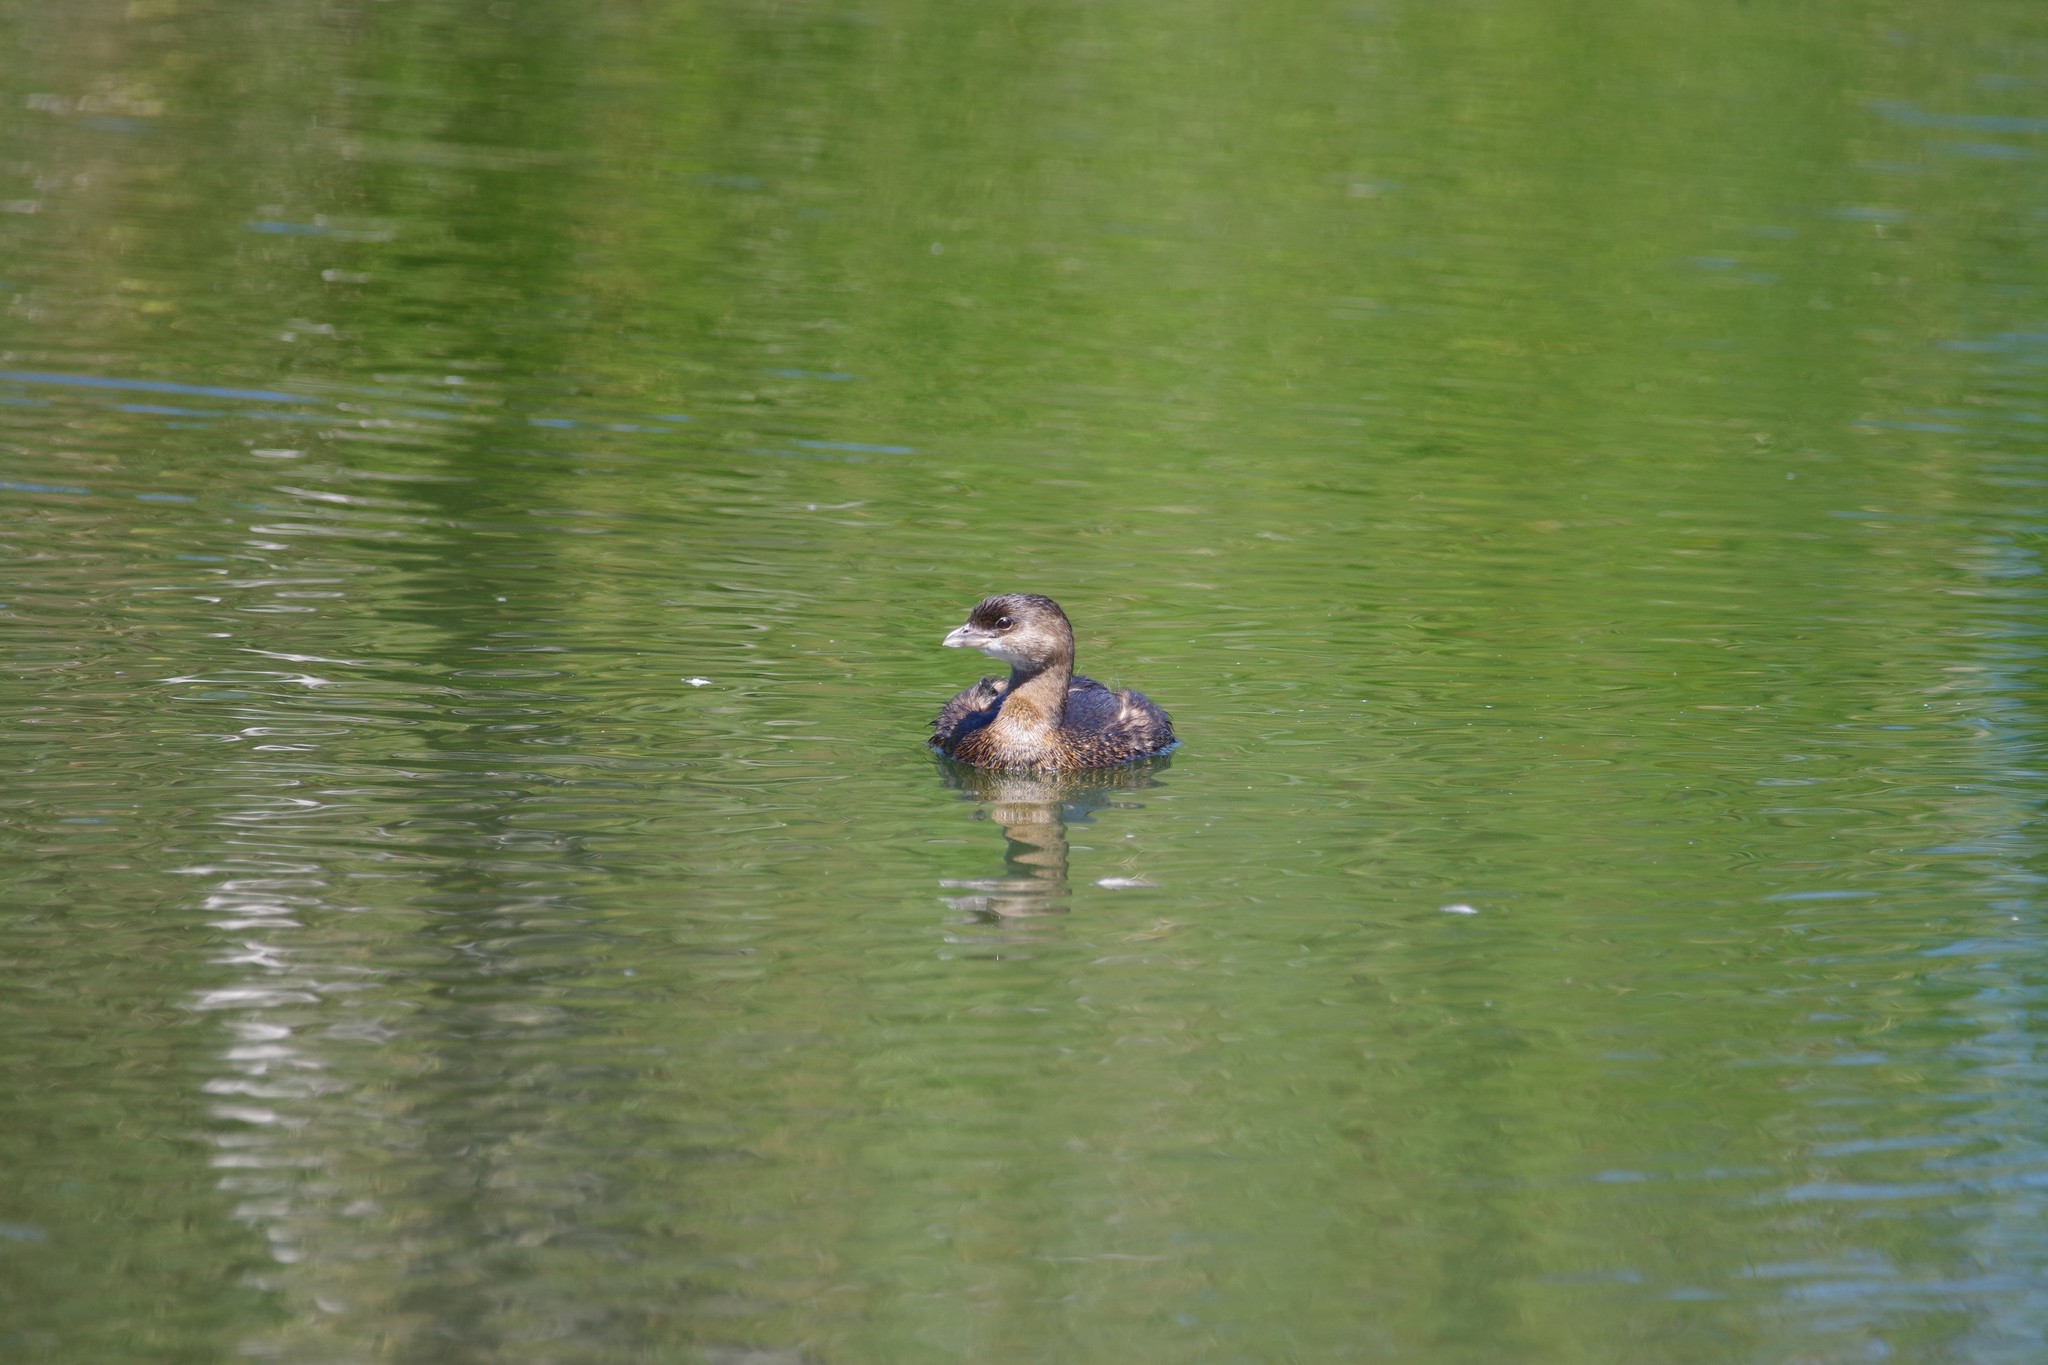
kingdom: Animalia
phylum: Chordata
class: Aves
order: Podicipediformes
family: Podicipedidae
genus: Podilymbus
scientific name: Podilymbus podiceps
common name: Pied-billed grebe
